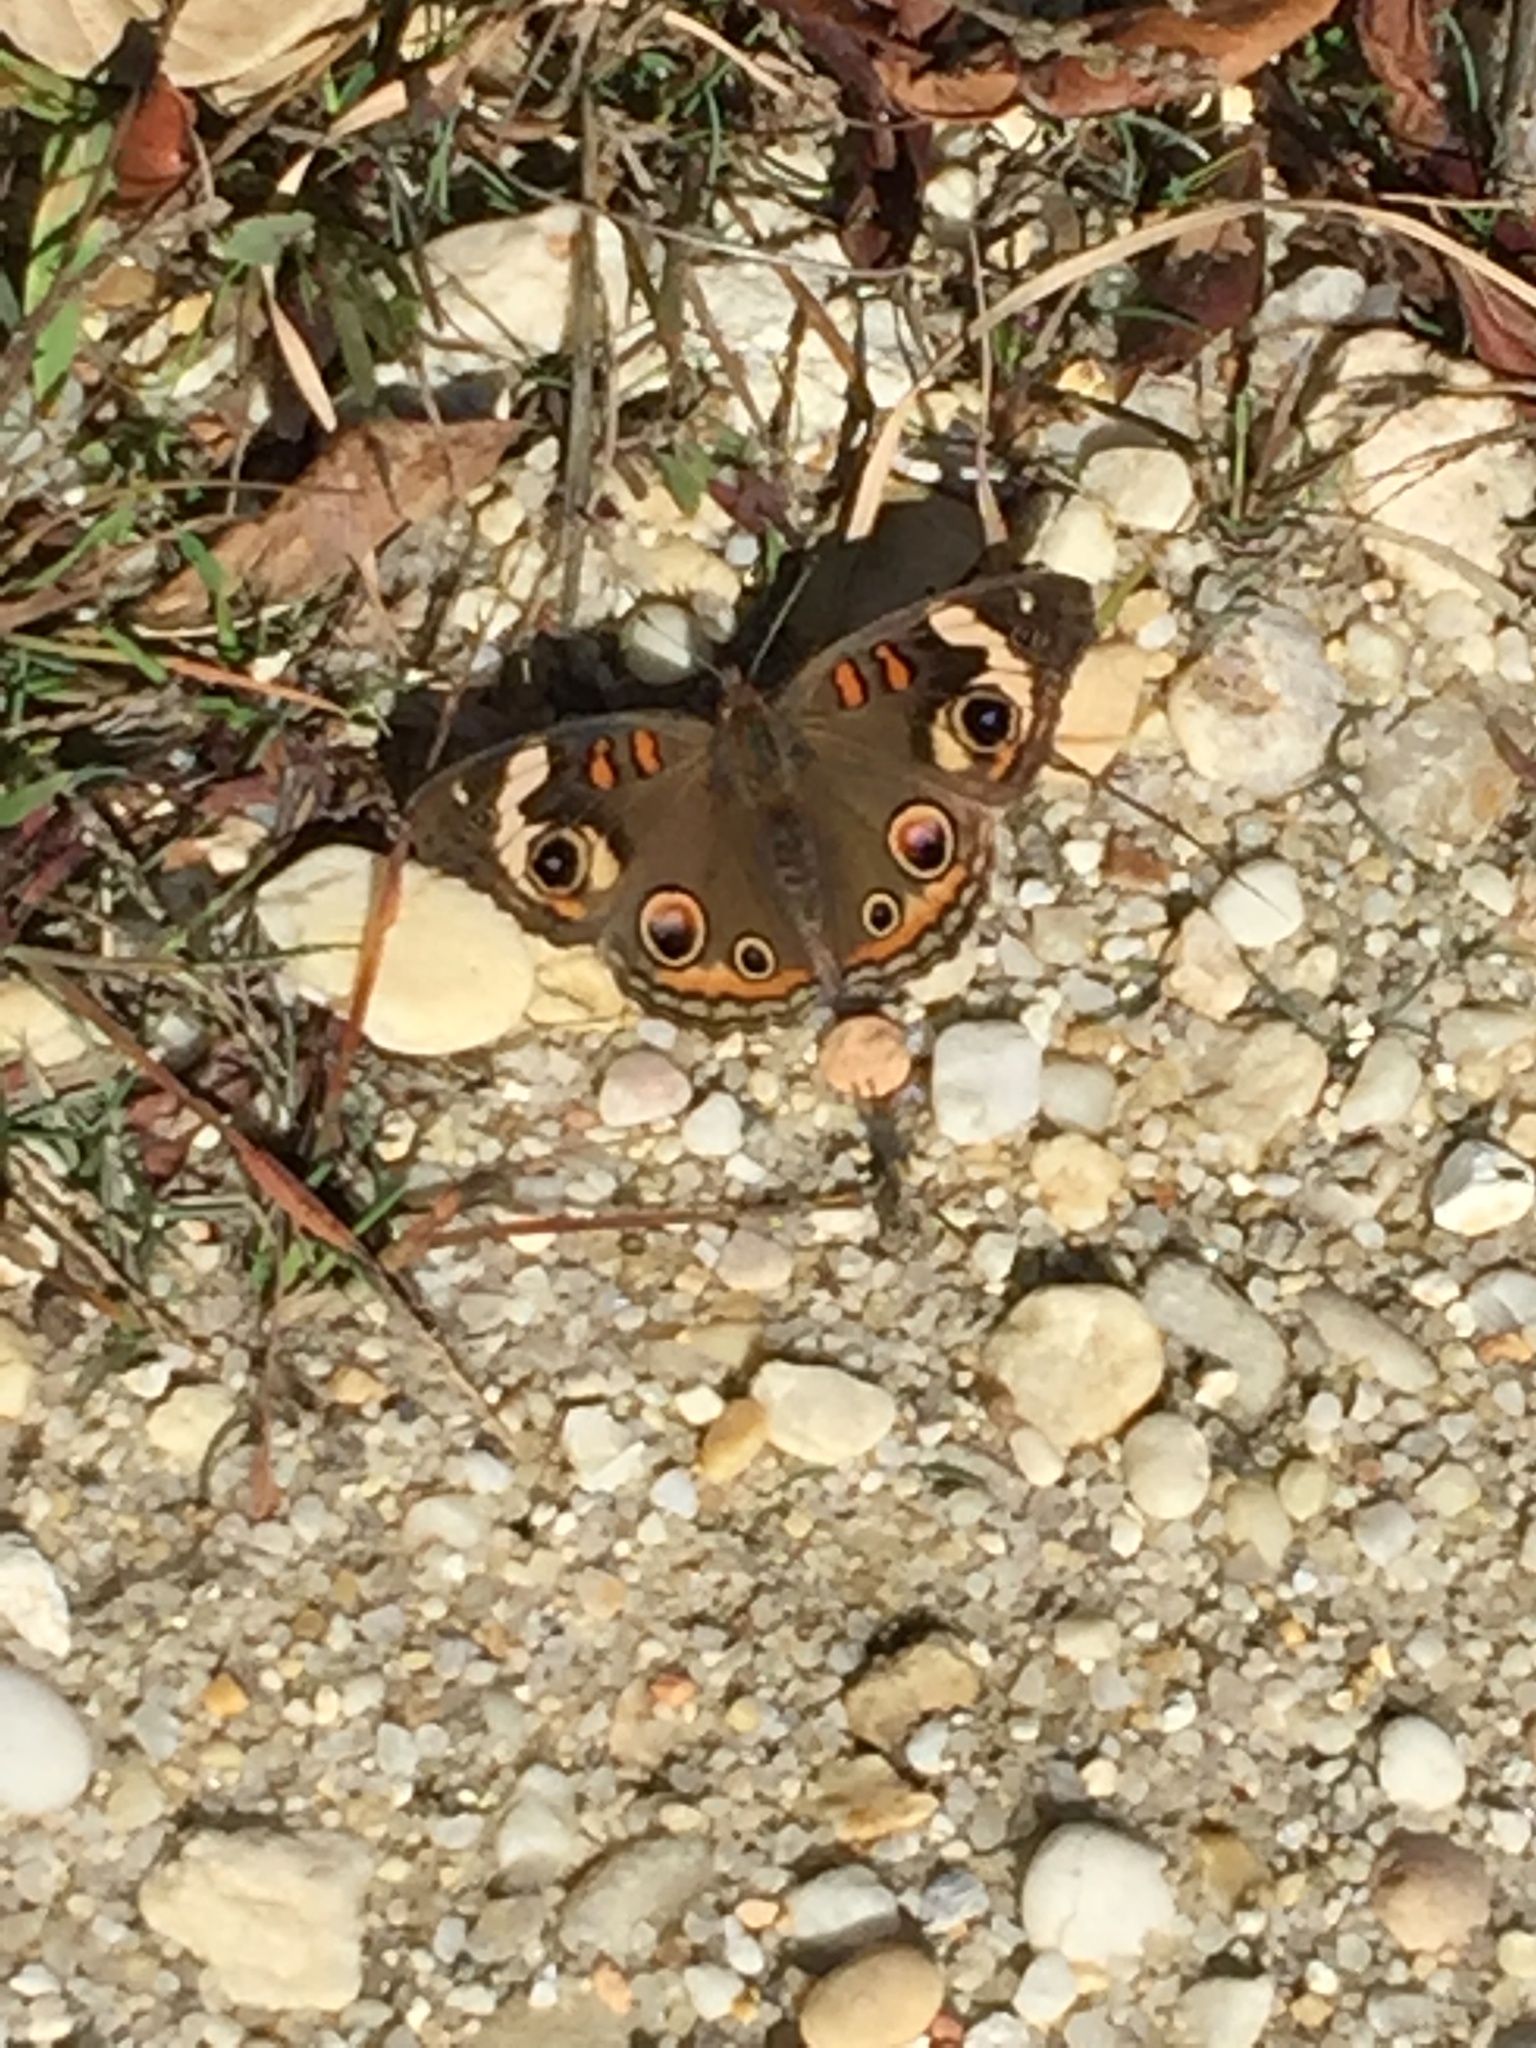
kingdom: Animalia
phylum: Arthropoda
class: Insecta
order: Lepidoptera
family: Nymphalidae
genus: Junonia
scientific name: Junonia coenia
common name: Common buckeye
